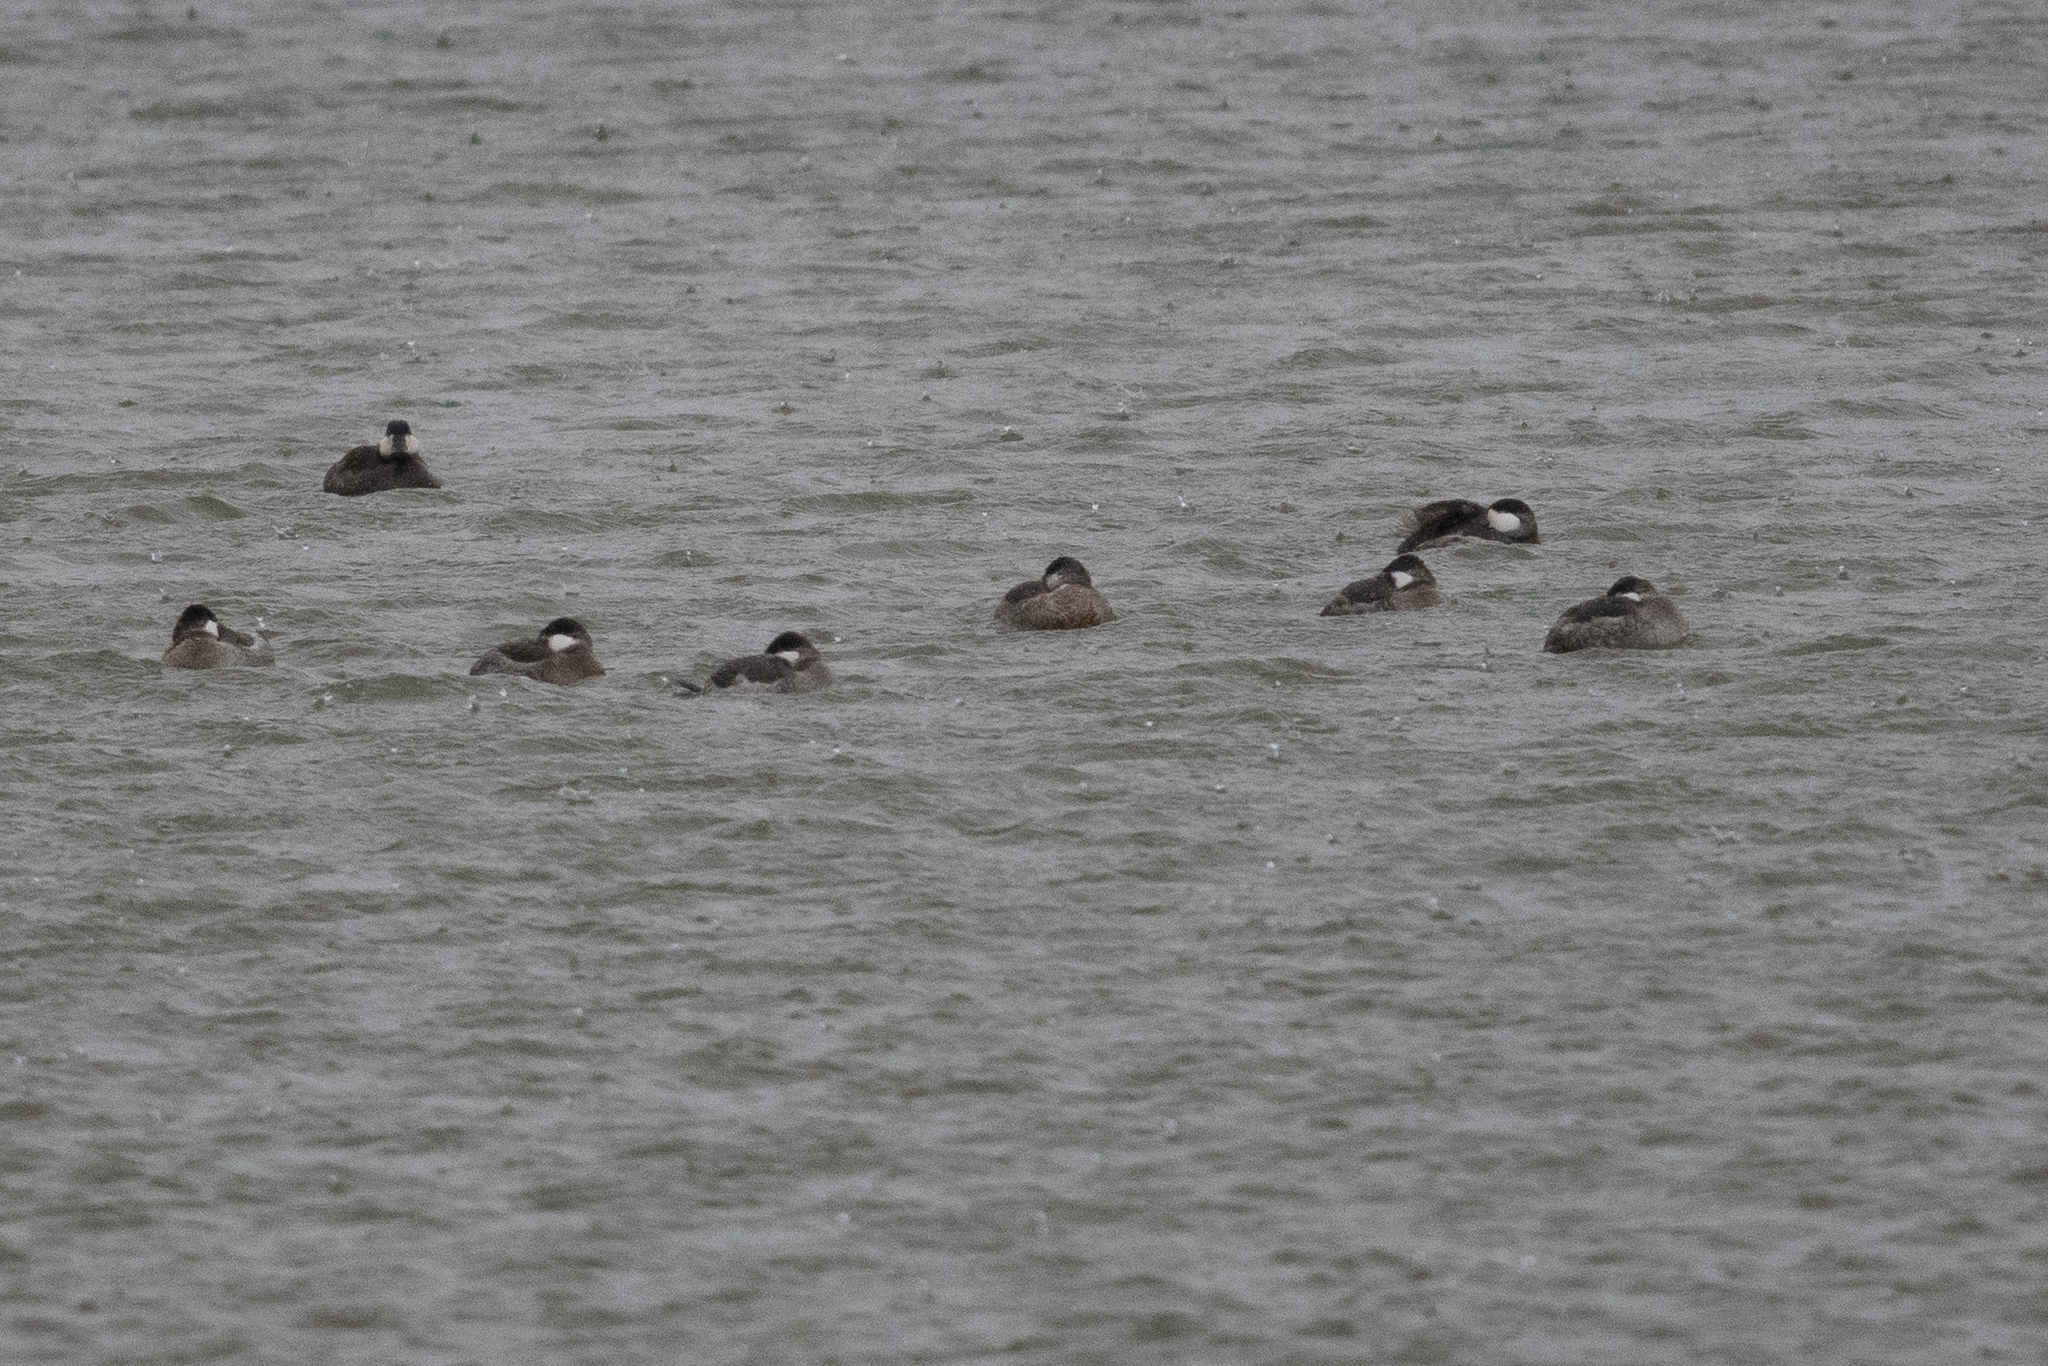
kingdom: Animalia
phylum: Chordata
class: Aves
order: Anseriformes
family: Anatidae
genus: Oxyura
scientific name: Oxyura jamaicensis
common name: Ruddy duck
